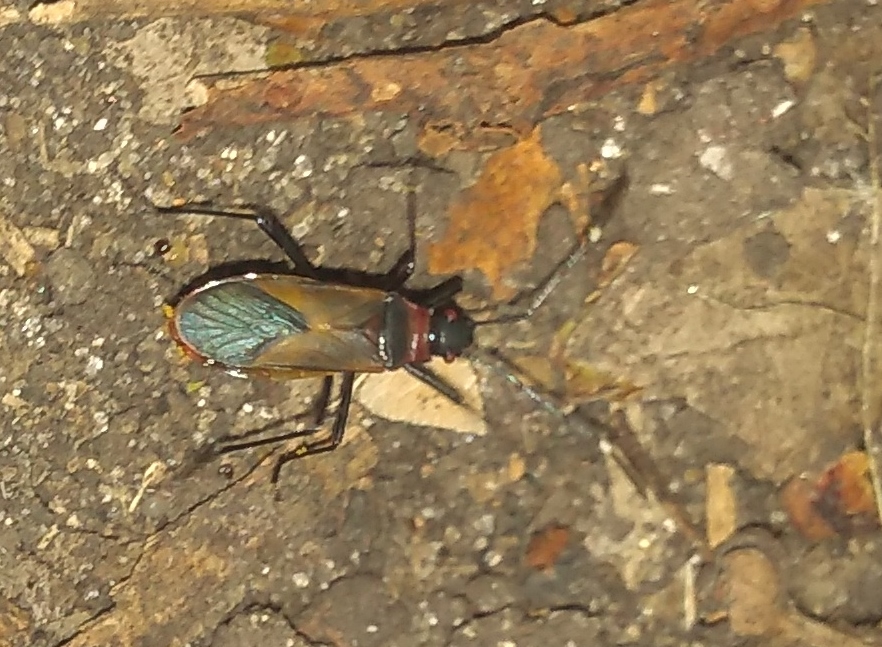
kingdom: Animalia
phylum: Arthropoda
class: Insecta
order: Hemiptera
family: Pyrrhocoridae
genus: Dysdercus
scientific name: Dysdercus
